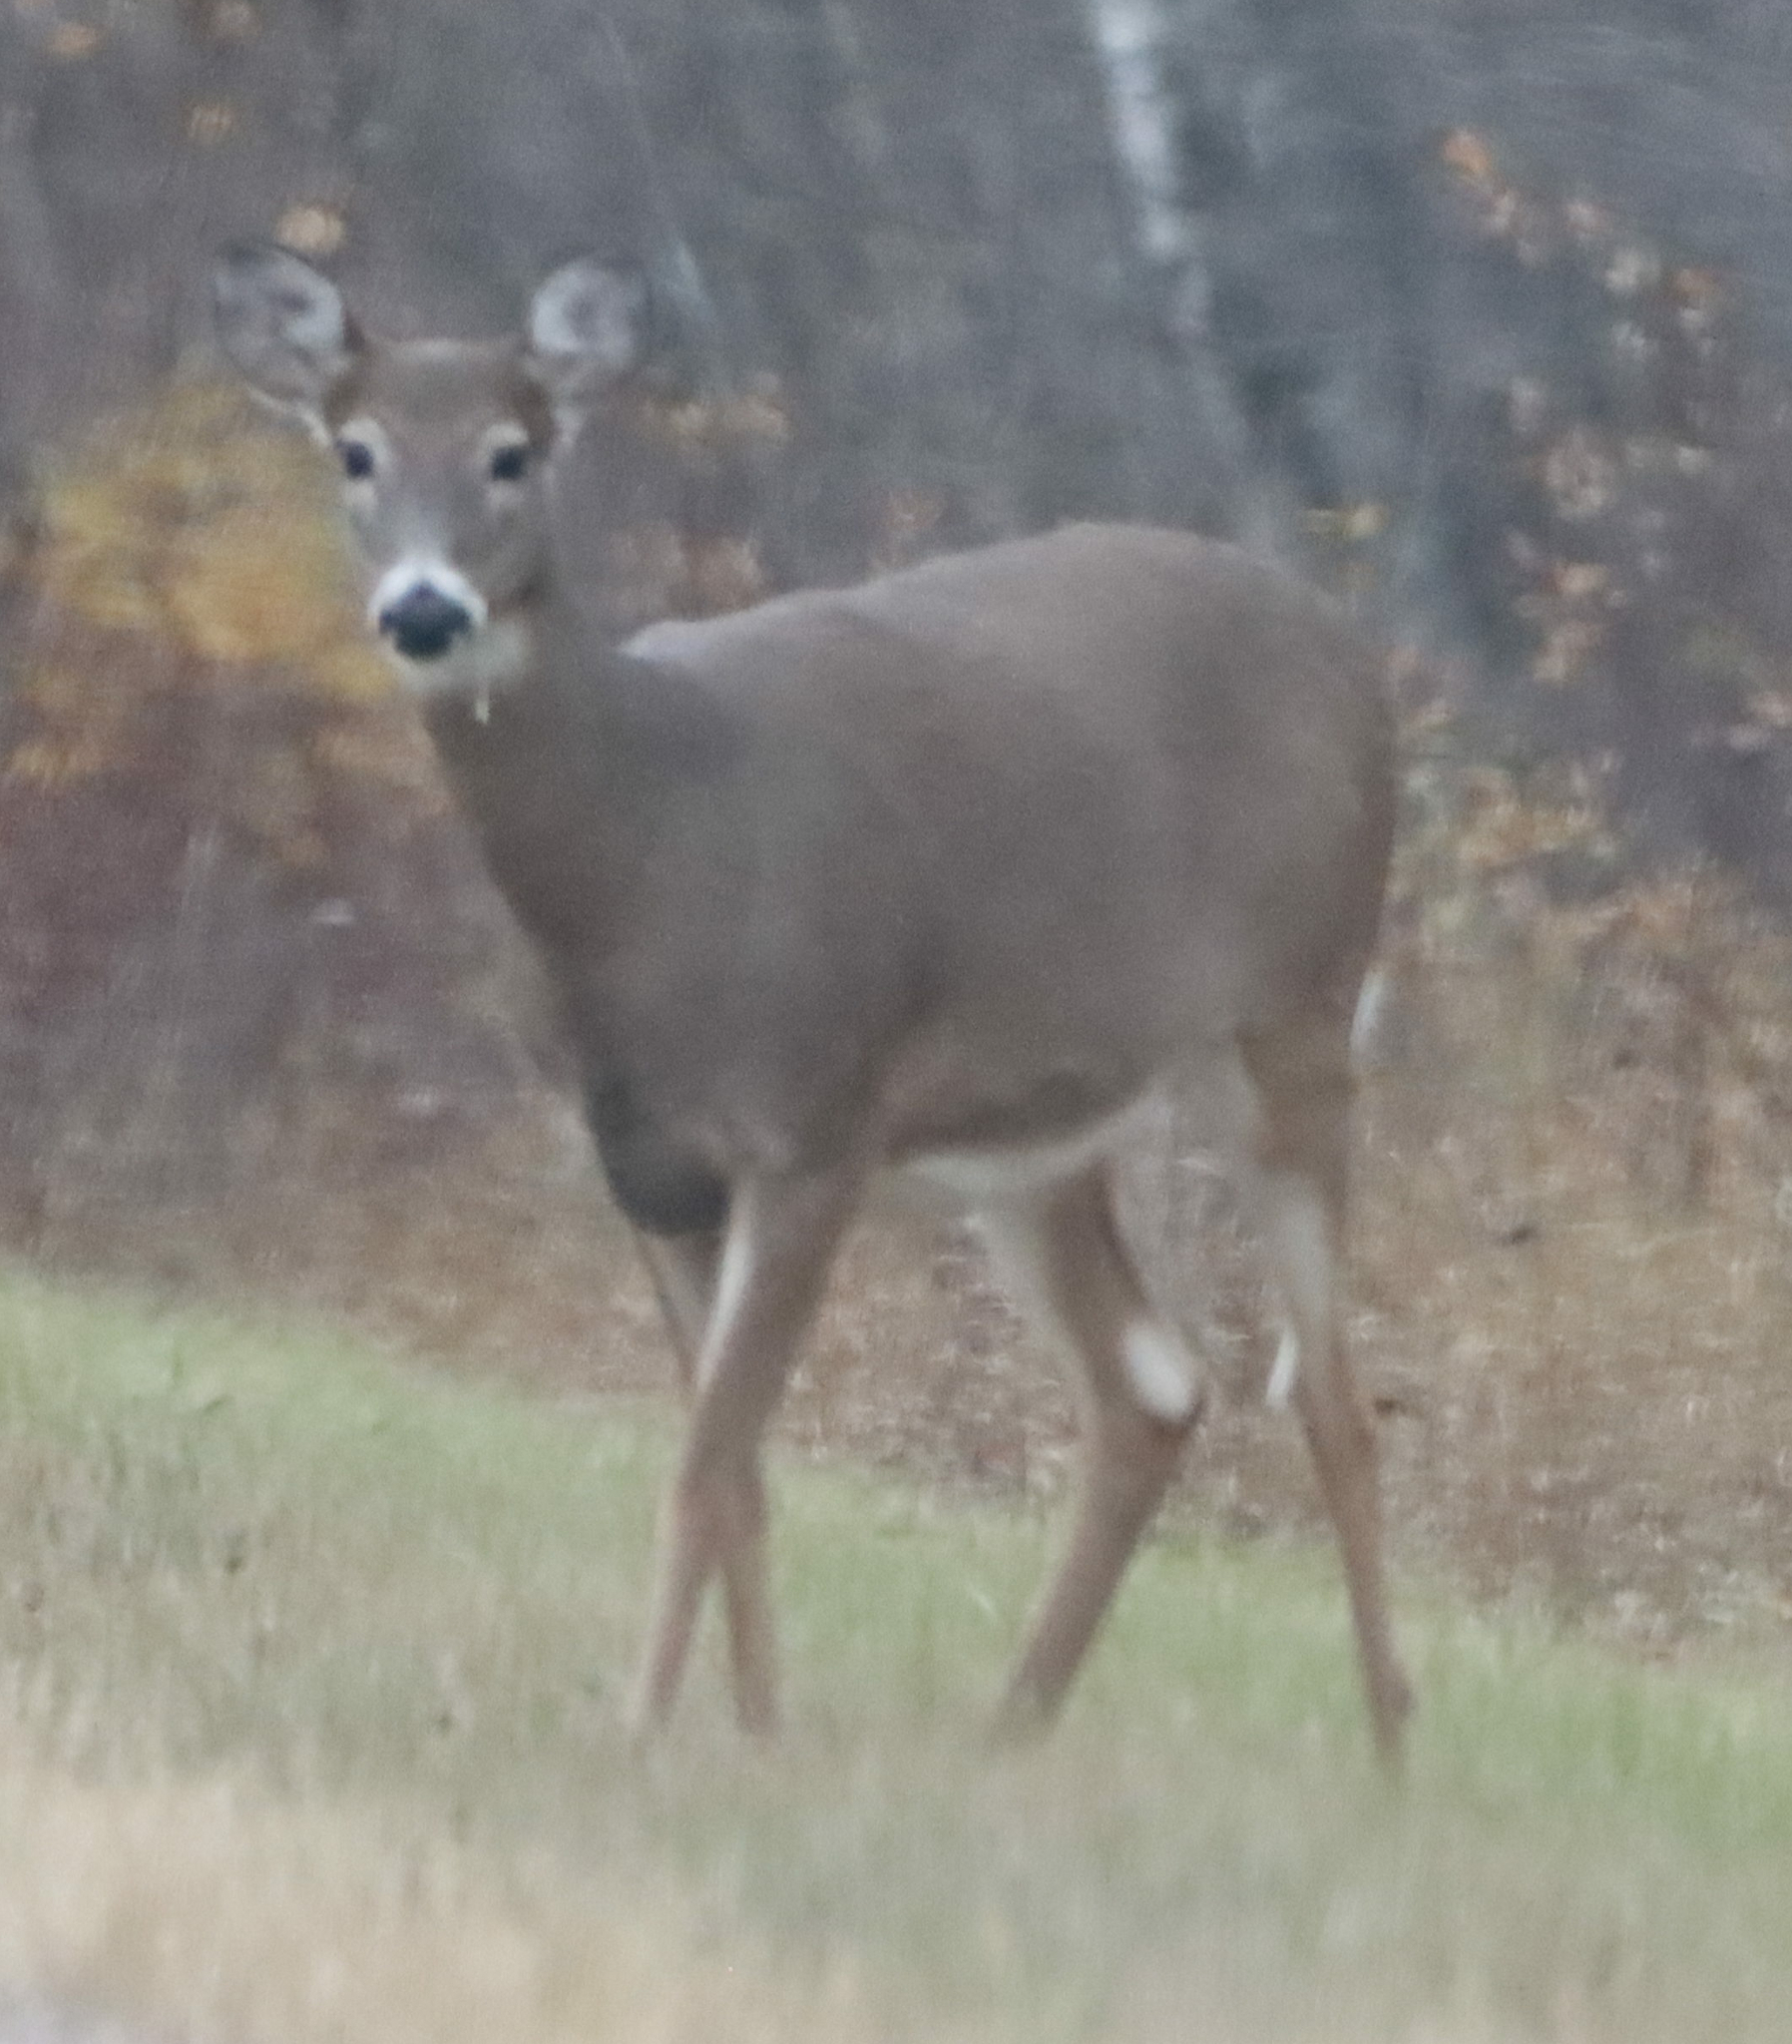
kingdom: Animalia
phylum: Chordata
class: Mammalia
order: Artiodactyla
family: Cervidae
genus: Odocoileus
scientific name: Odocoileus virginianus
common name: White-tailed deer
